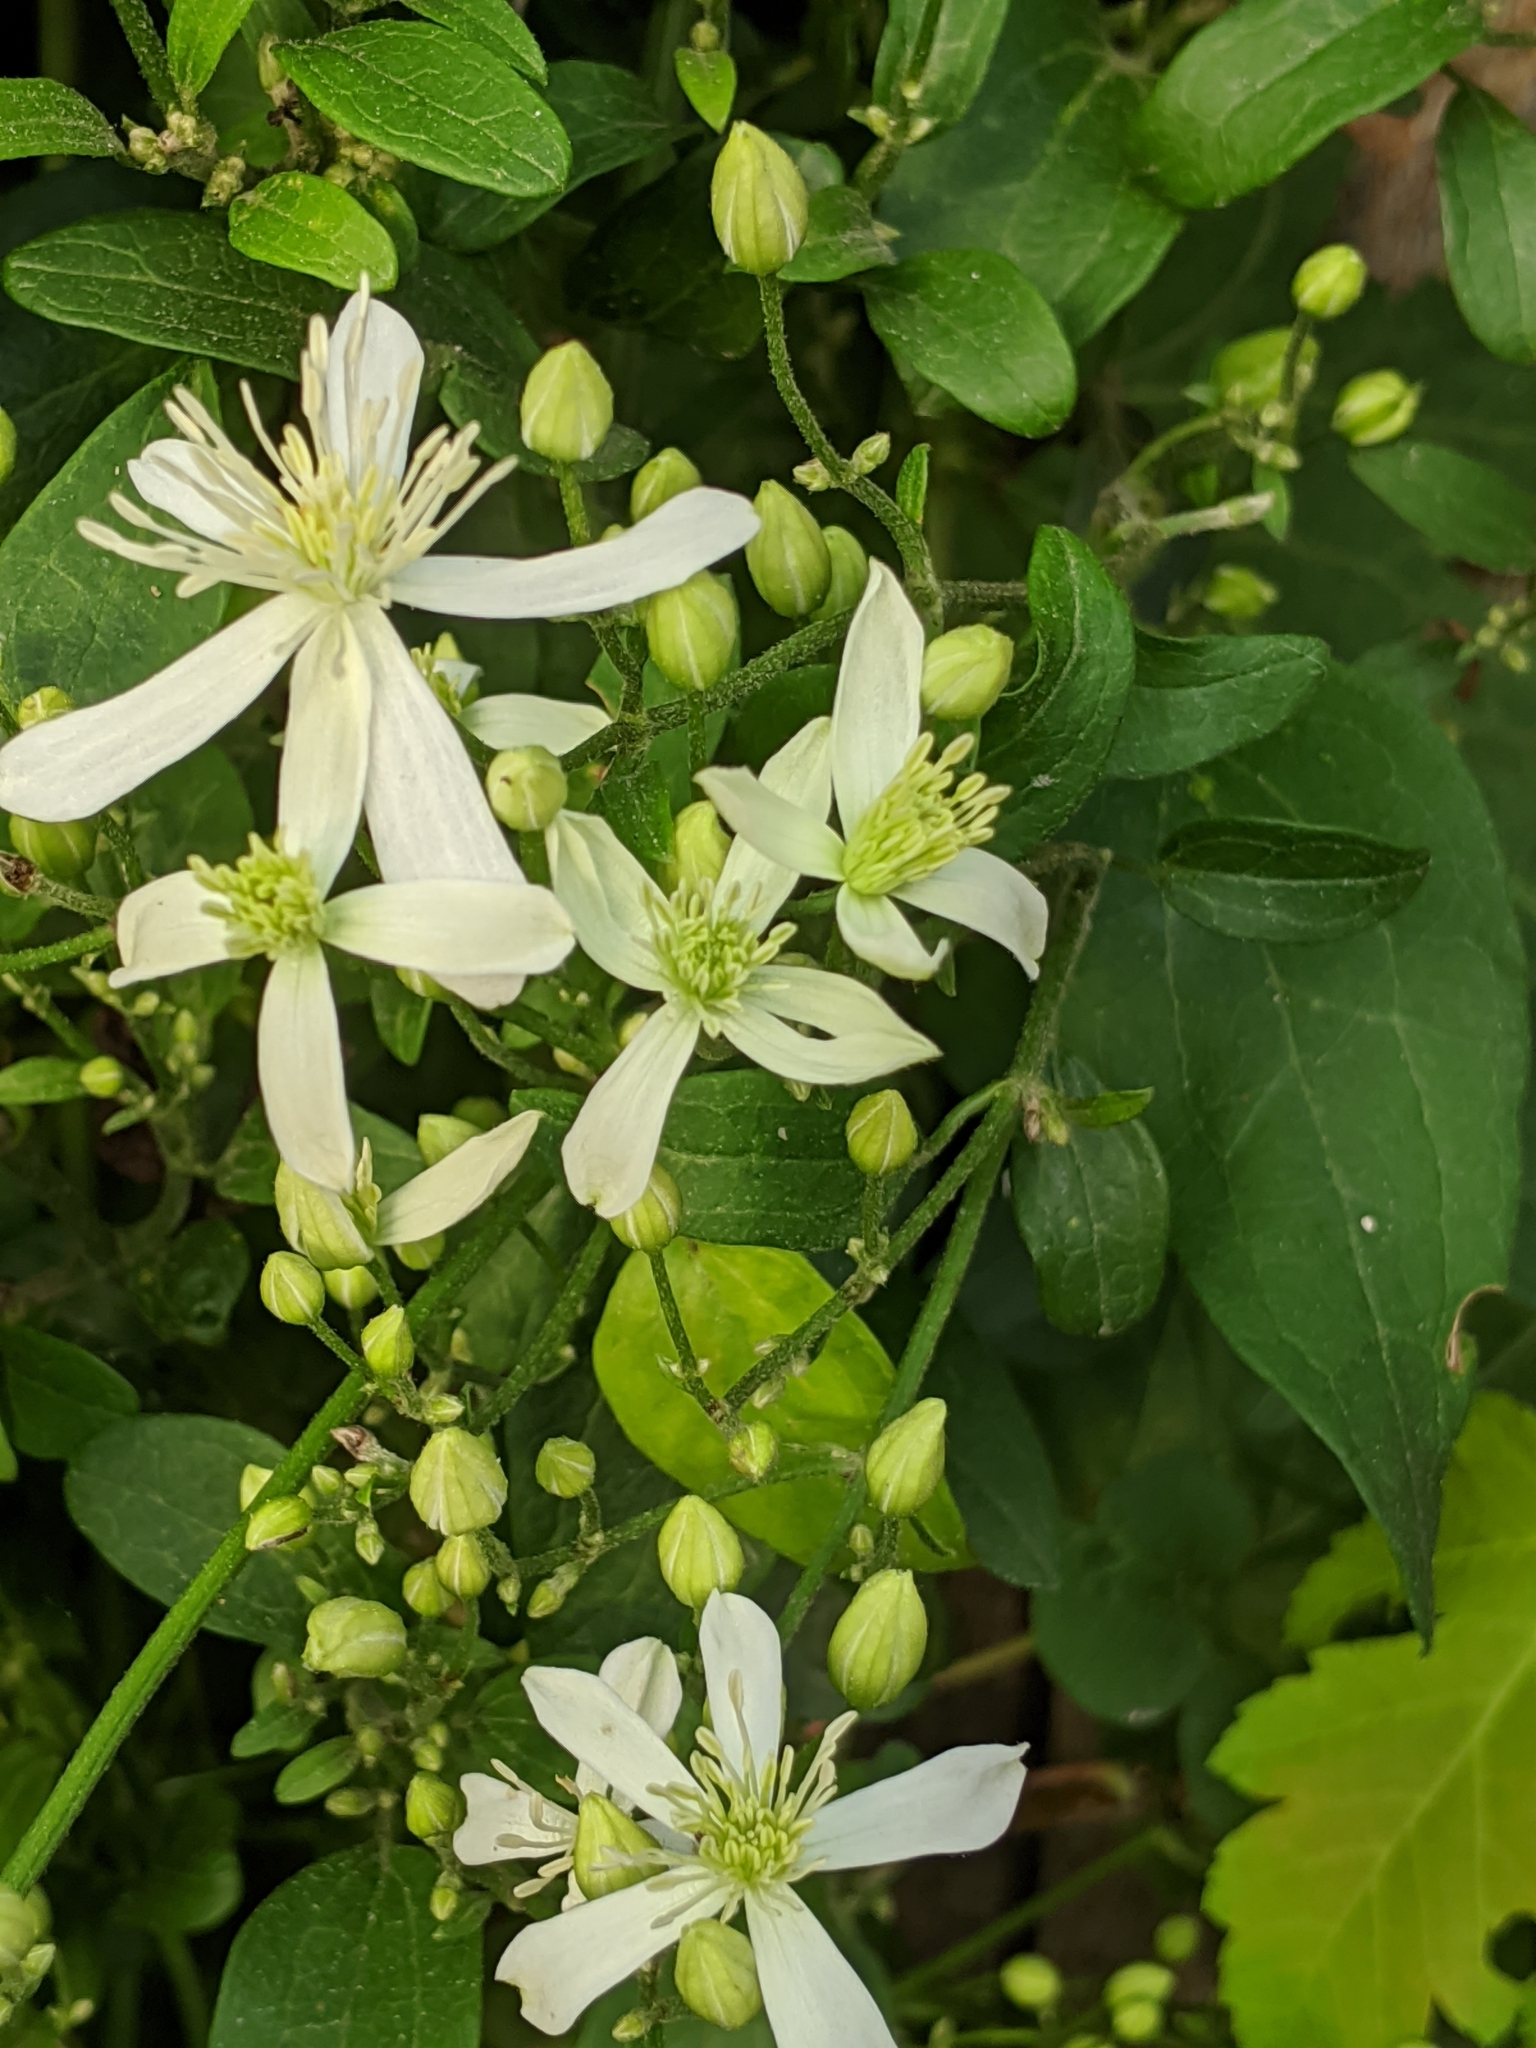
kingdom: Plantae
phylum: Tracheophyta
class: Magnoliopsida
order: Ranunculales
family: Ranunculaceae
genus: Clematis
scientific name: Clematis terniflora
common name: Sweet autumn clematis
